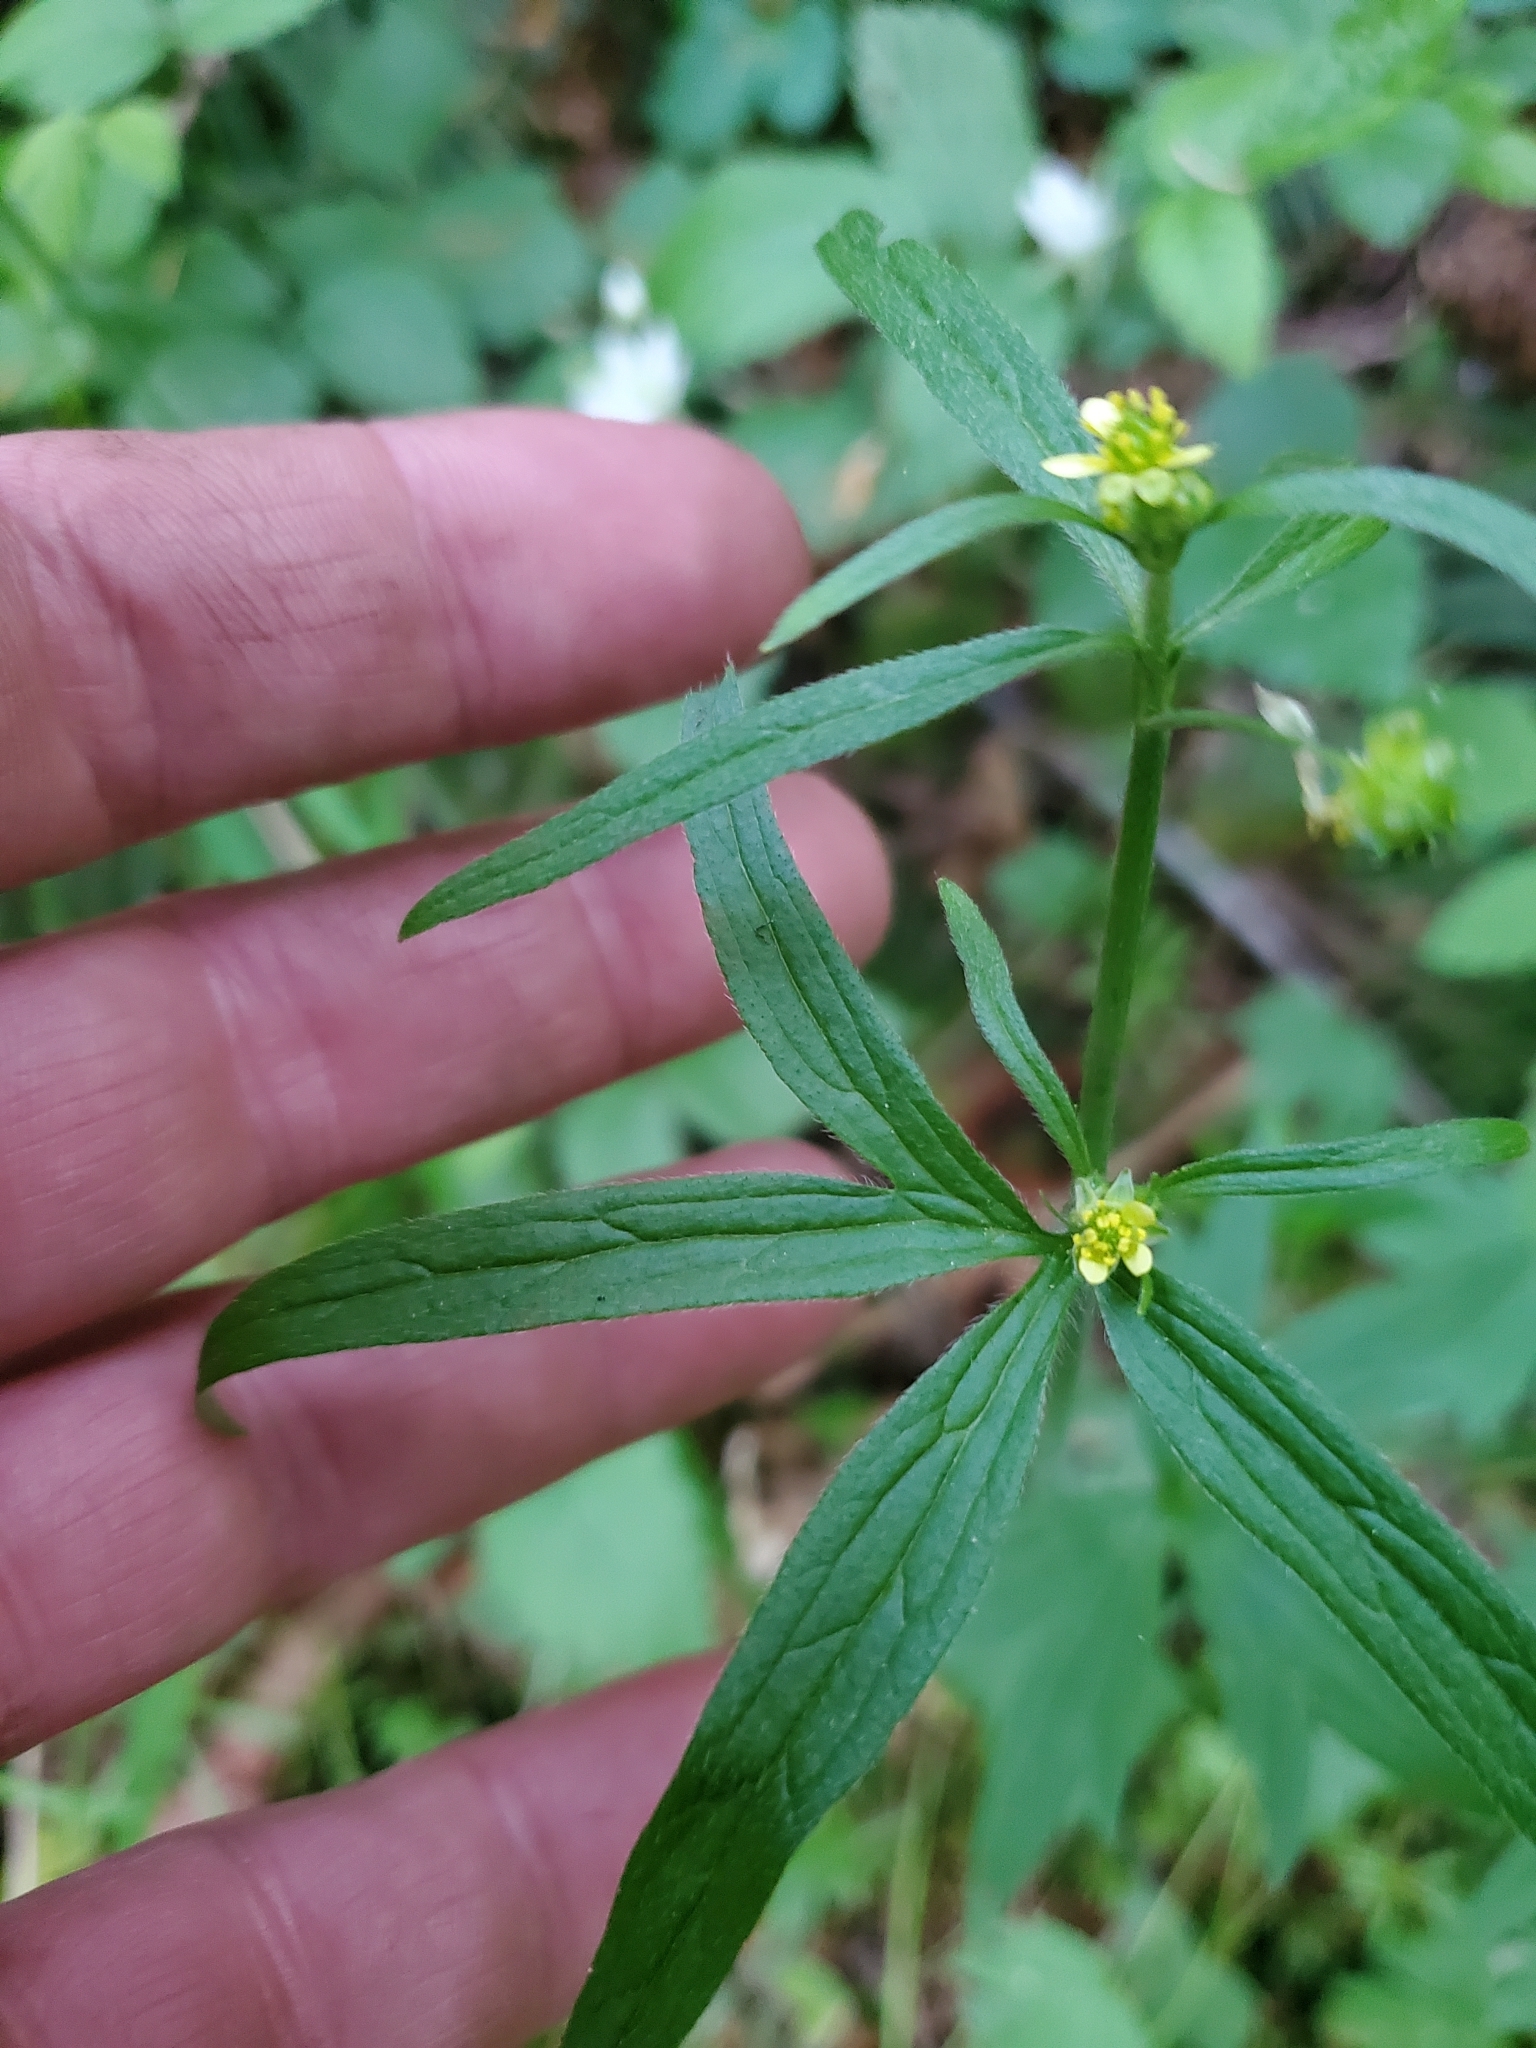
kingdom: Plantae
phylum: Tracheophyta
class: Magnoliopsida
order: Ranunculales
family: Ranunculaceae
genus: Ranunculus
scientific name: Ranunculus uncinatus
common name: Little buttercup
